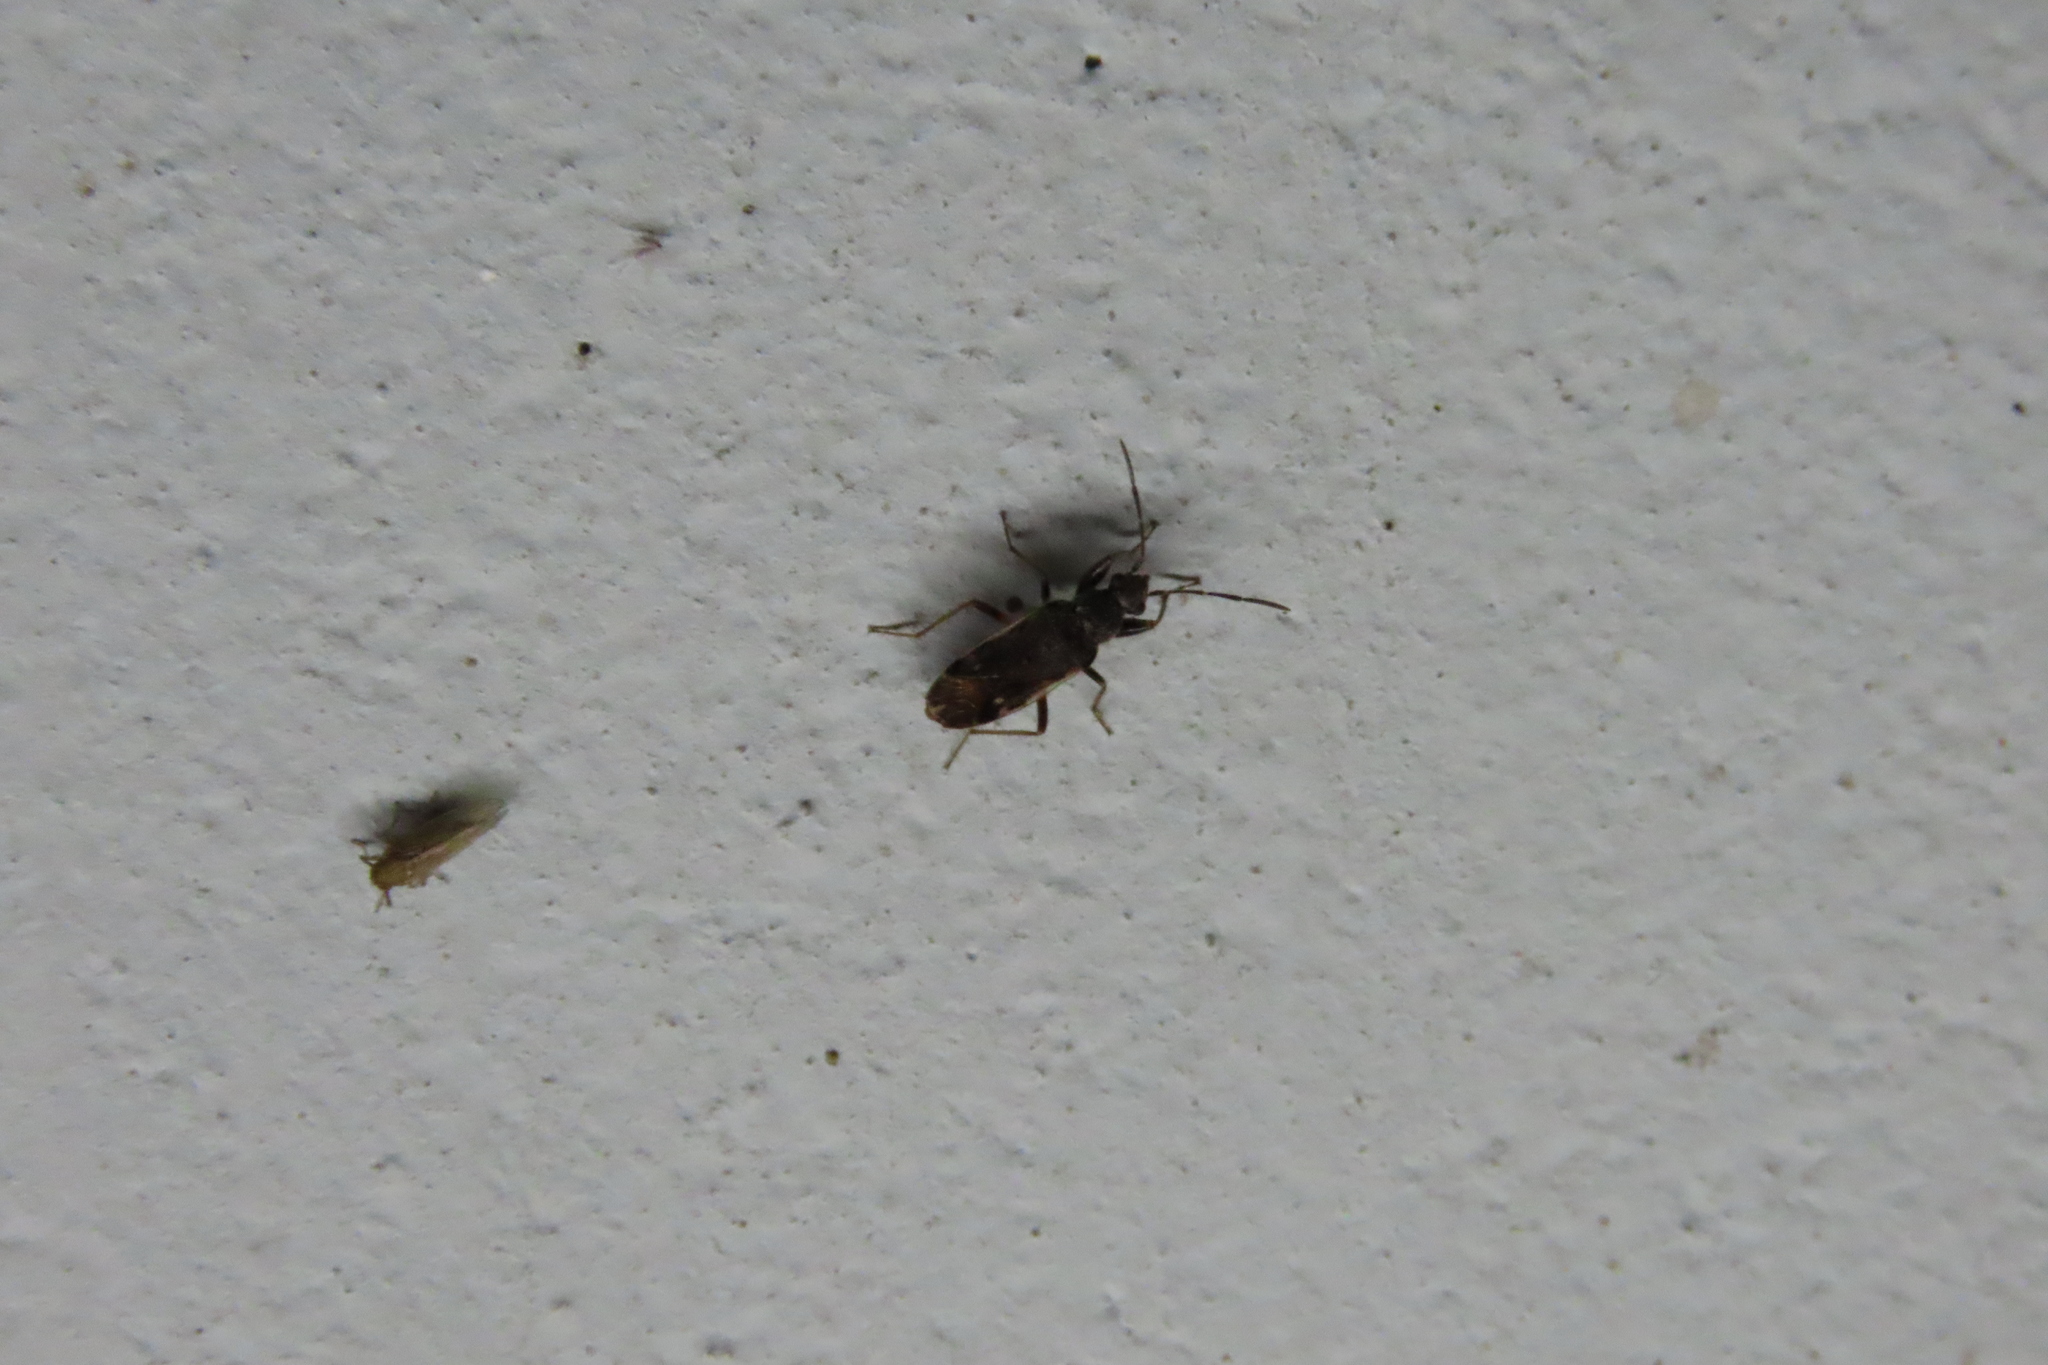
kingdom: Animalia
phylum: Arthropoda
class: Insecta
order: Hemiptera
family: Rhyparochromidae
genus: Horridipamera
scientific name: Horridipamera nietneri
